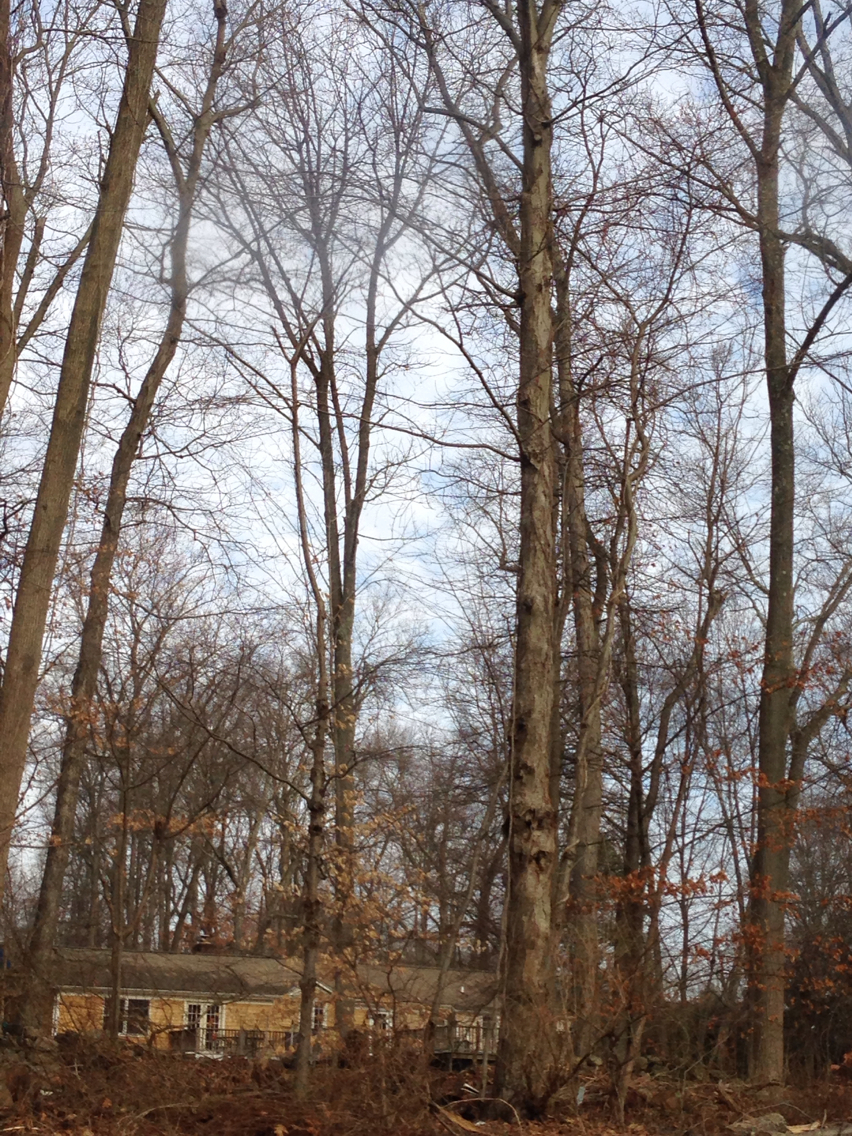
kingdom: Plantae
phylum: Tracheophyta
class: Magnoliopsida
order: Fagales
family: Betulaceae
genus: Betula
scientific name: Betula lenta
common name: Black birch
